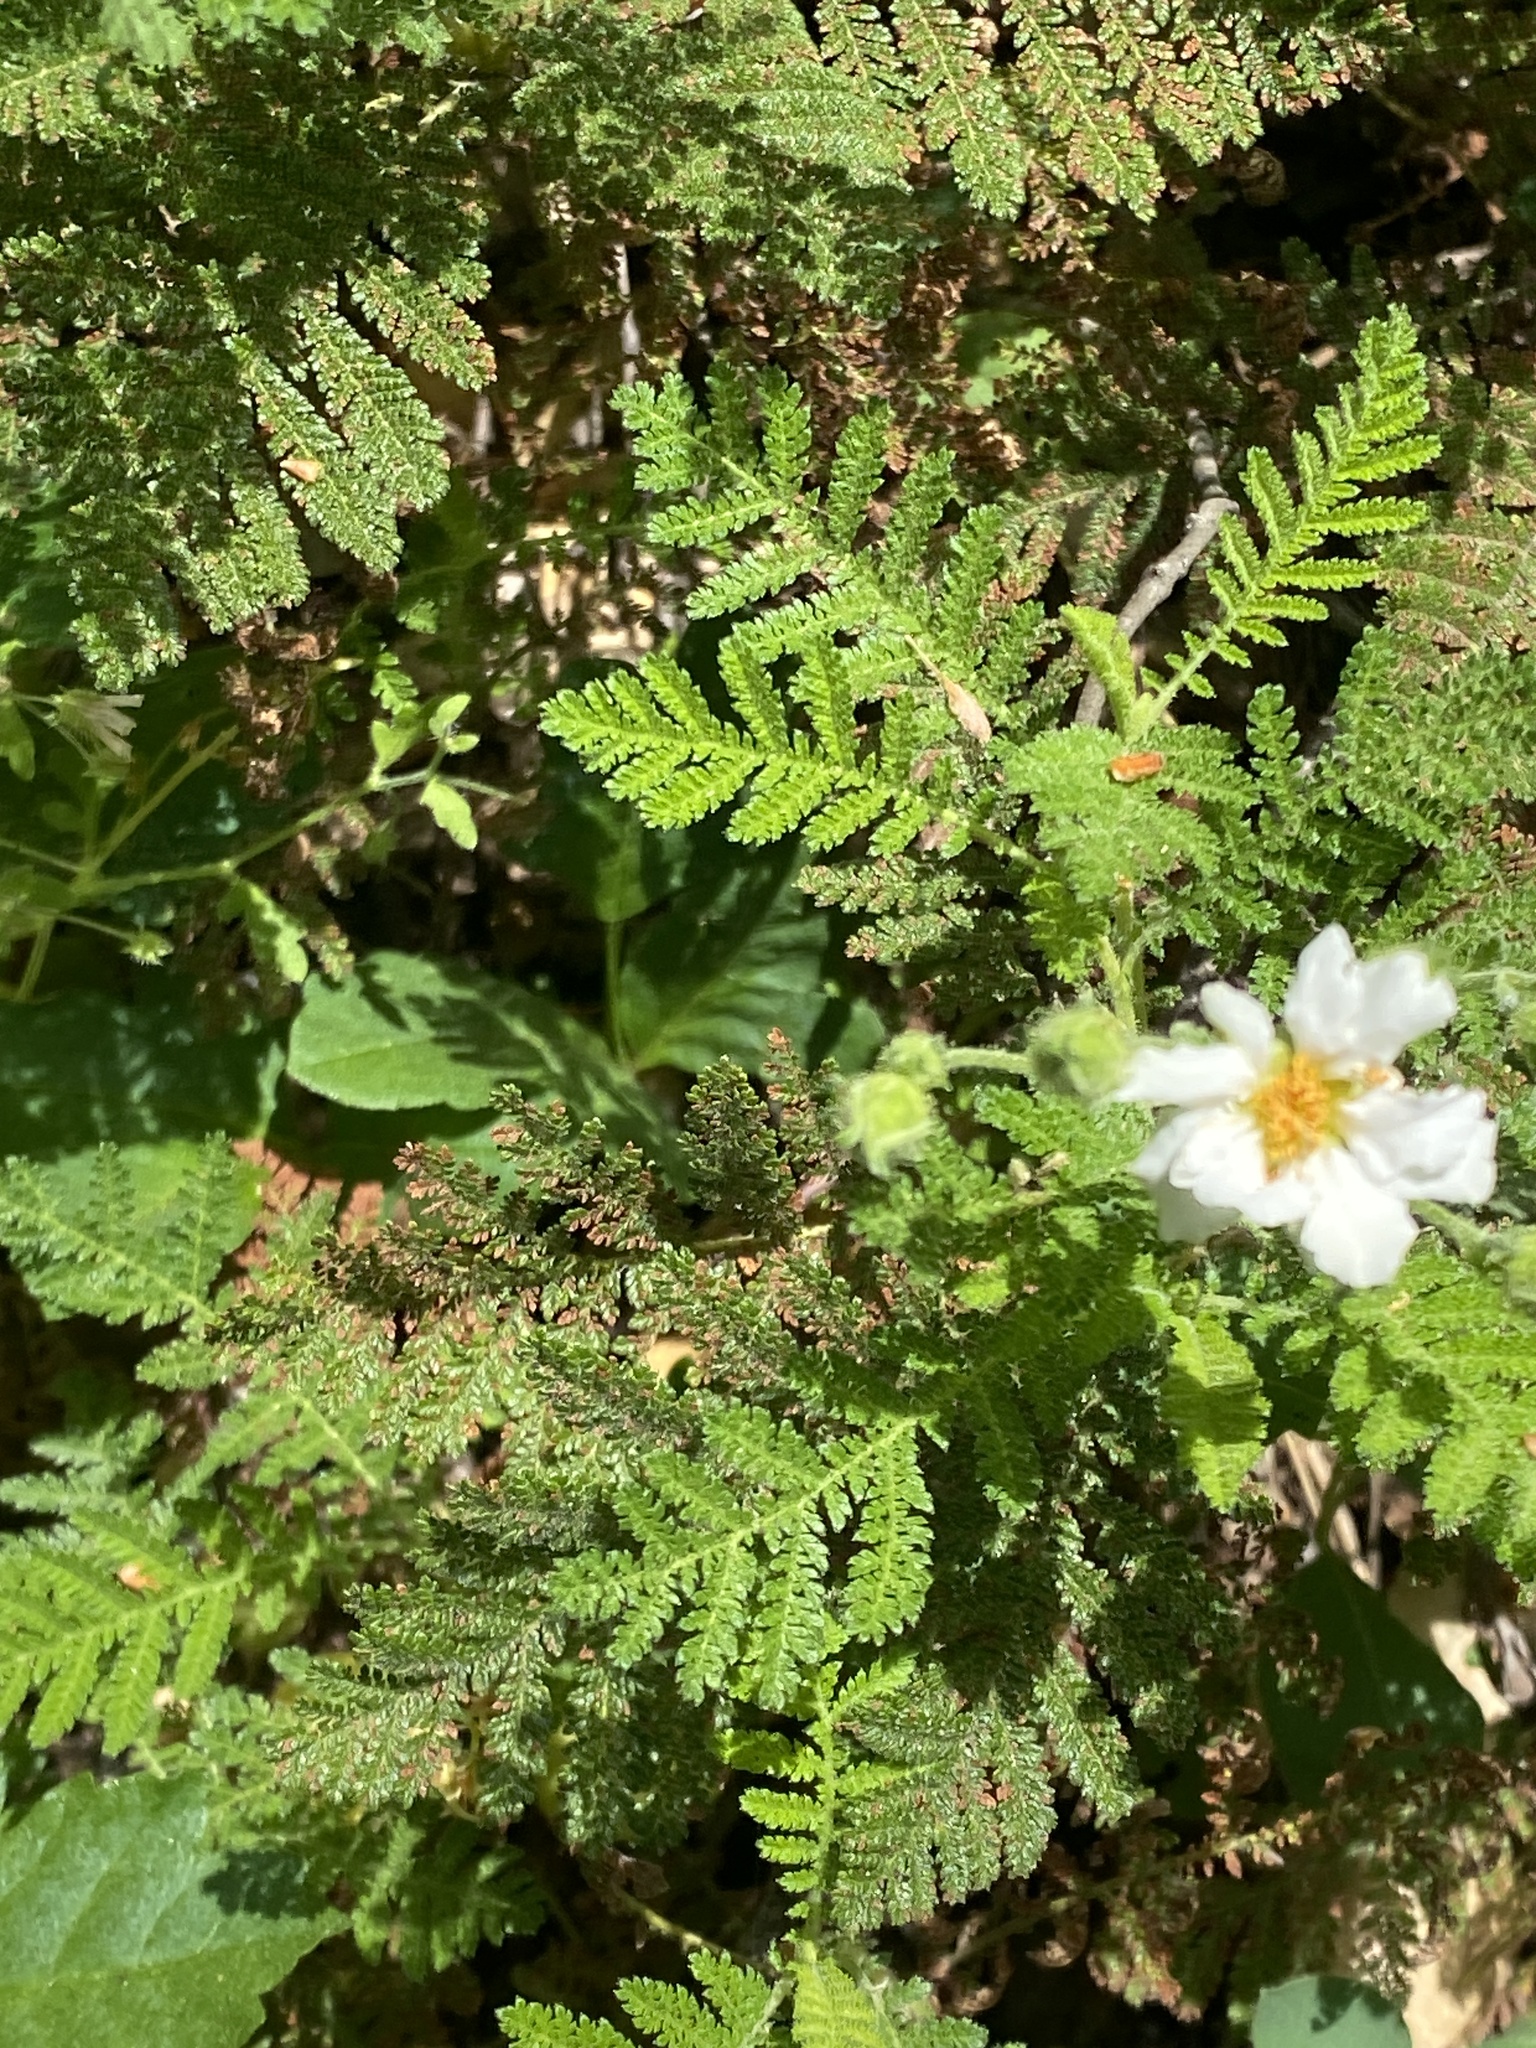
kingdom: Plantae
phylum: Tracheophyta
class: Magnoliopsida
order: Rosales
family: Rosaceae
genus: Chamaebatia
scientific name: Chamaebatia foliolosa
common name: Mountain misery
